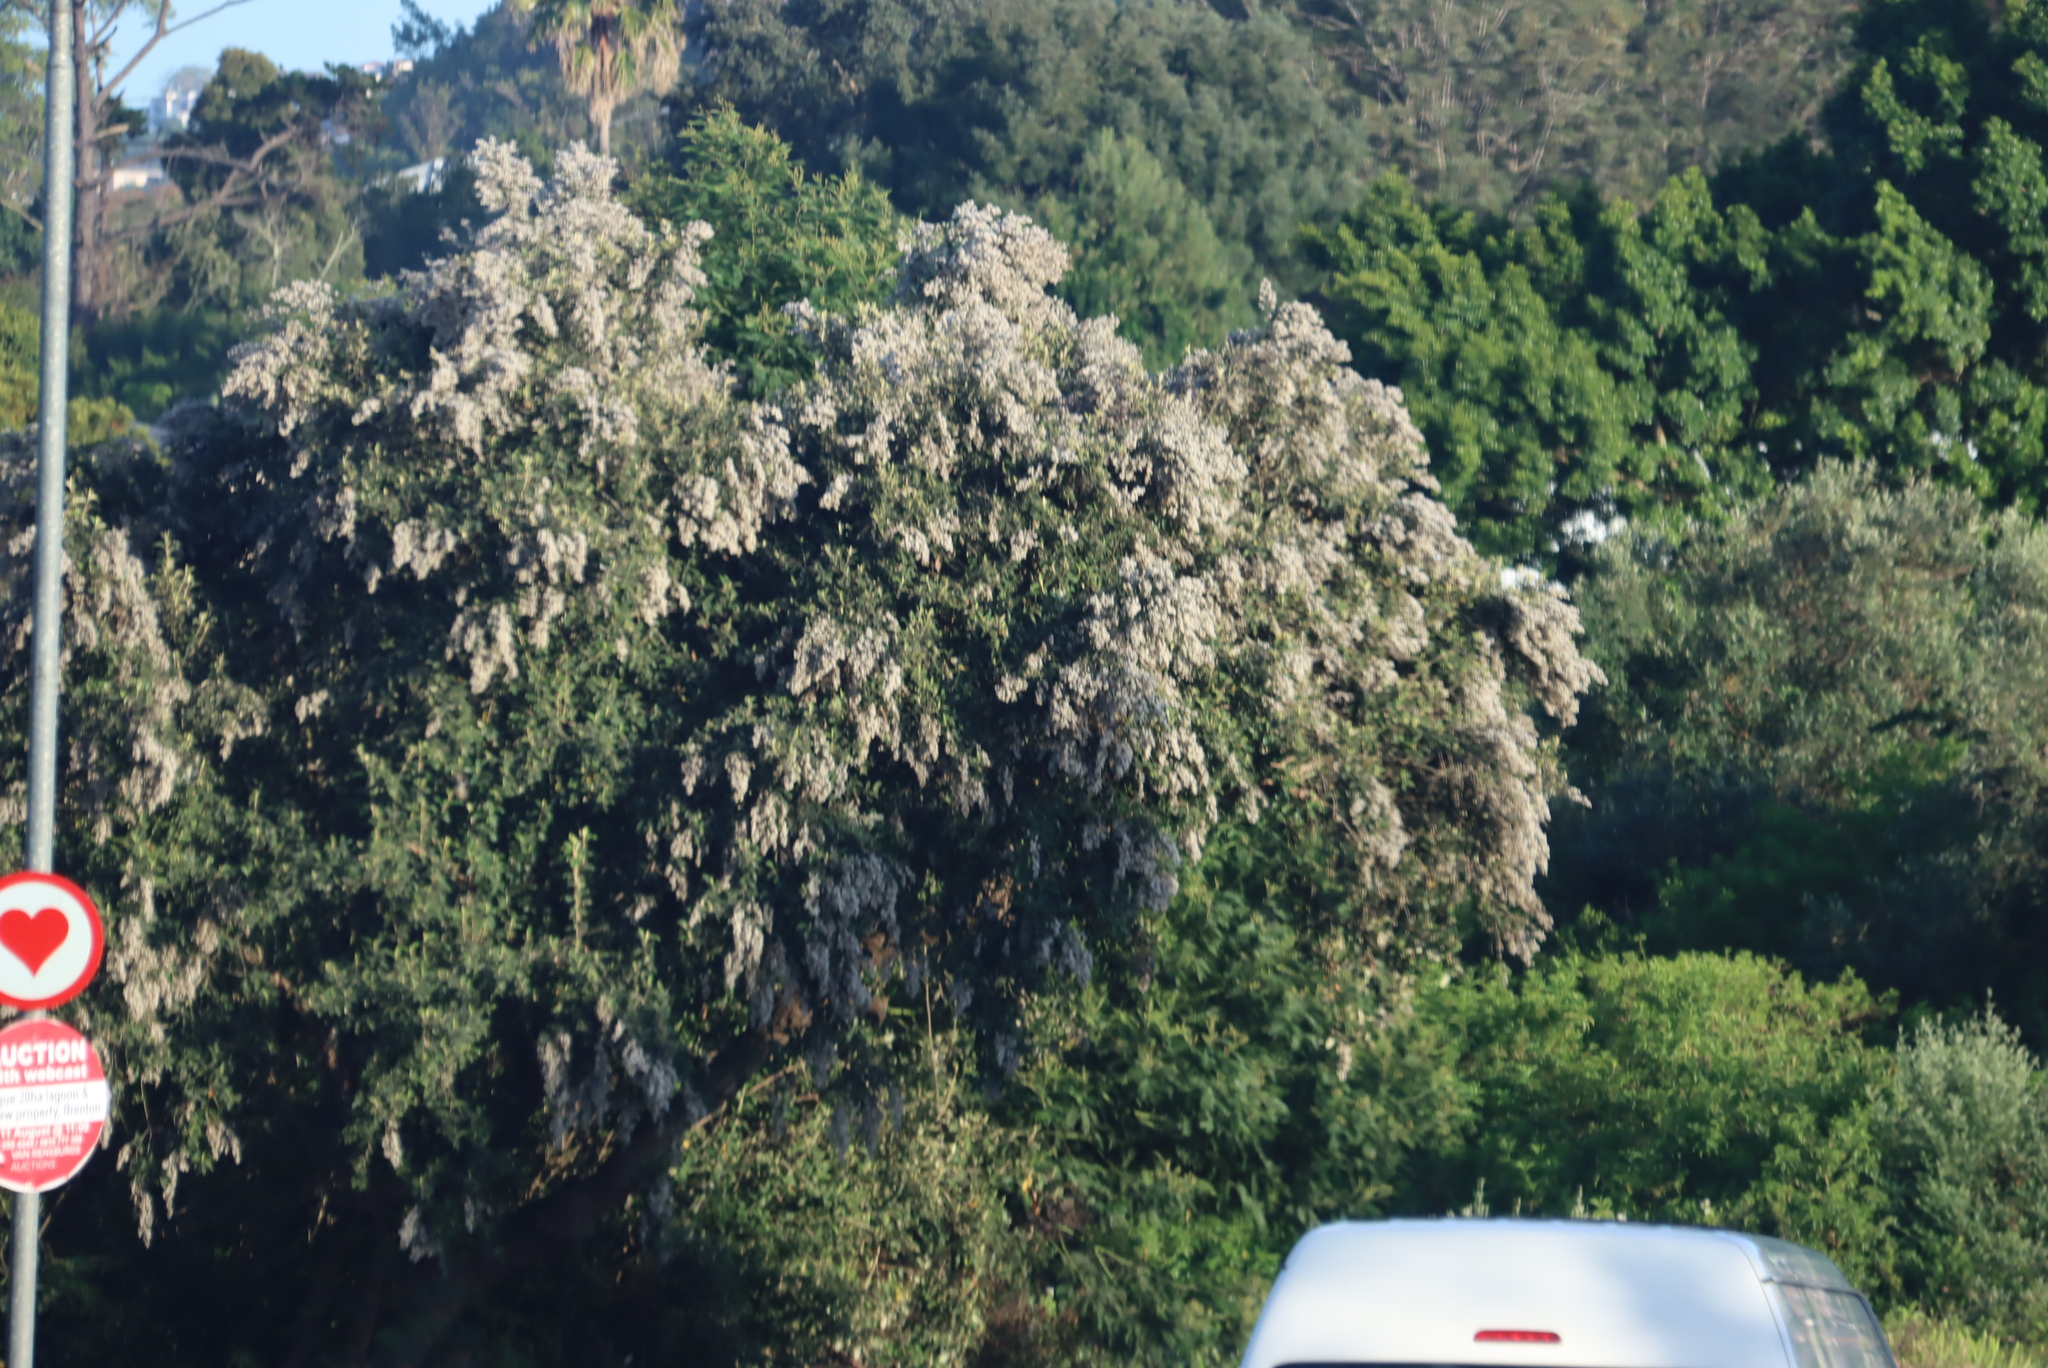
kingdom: Plantae
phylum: Tracheophyta
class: Magnoliopsida
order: Asterales
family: Asteraceae
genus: Tarchonanthus
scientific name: Tarchonanthus littoralis
